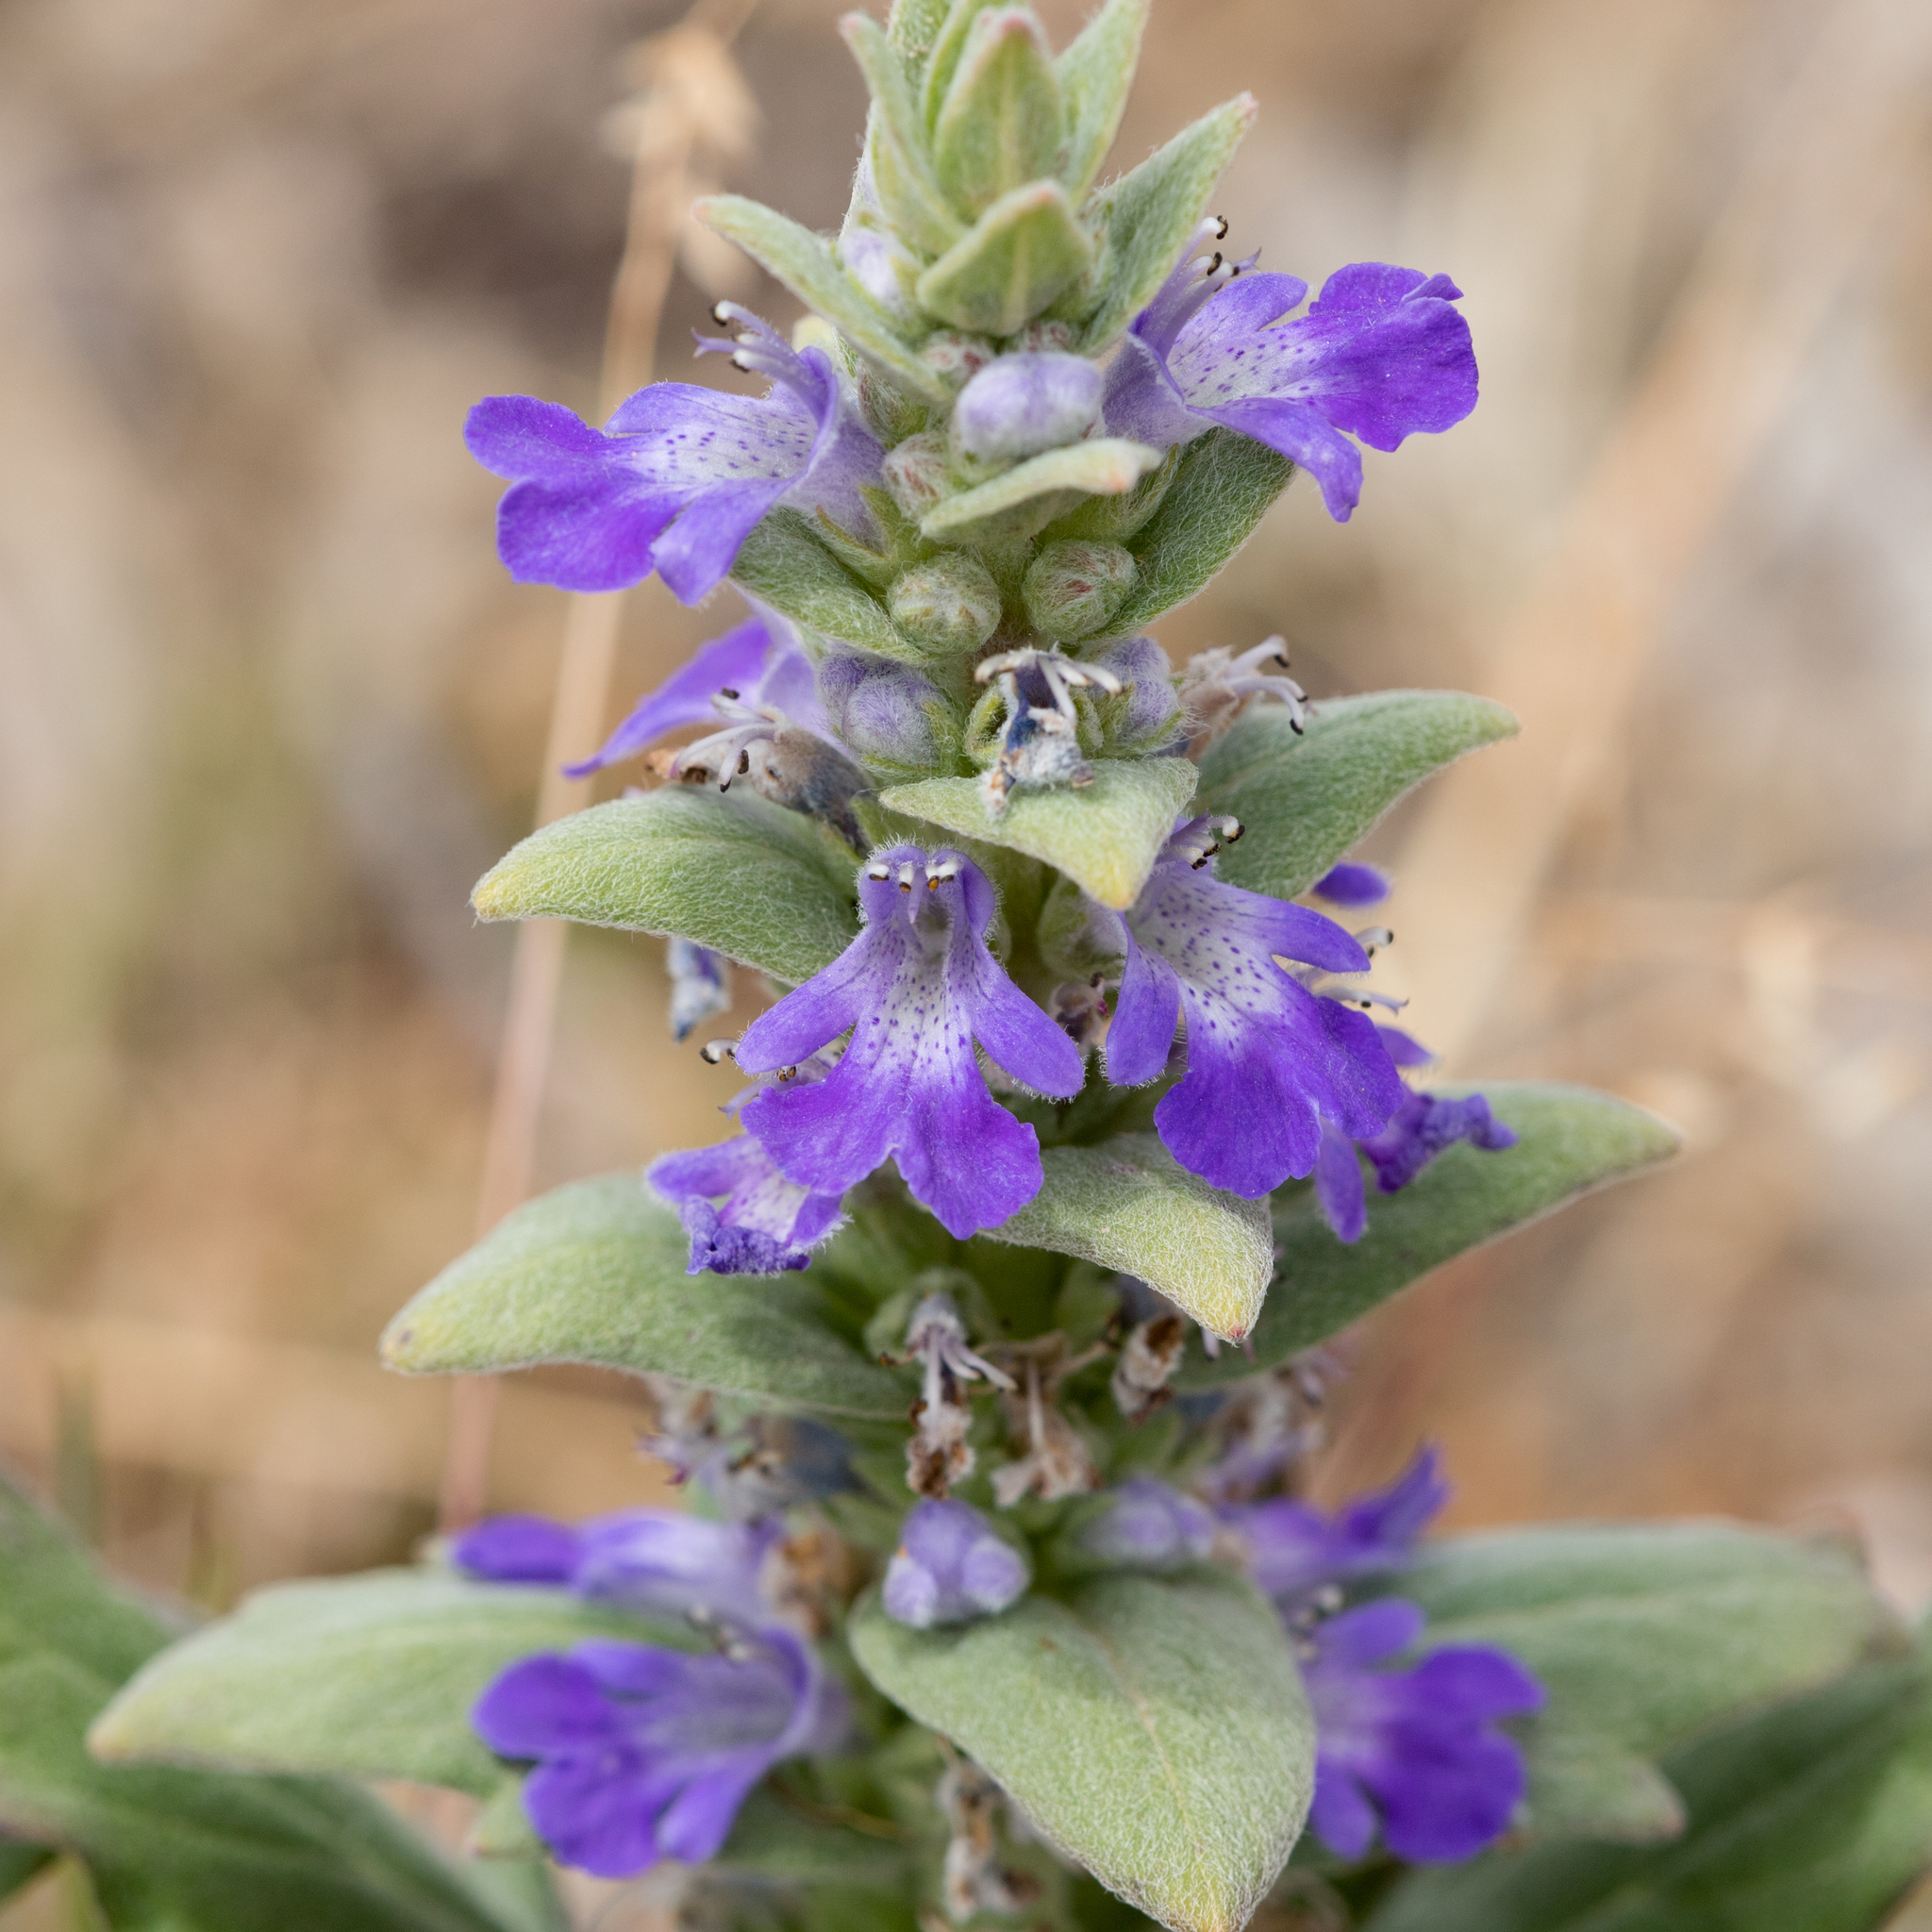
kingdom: Plantae
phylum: Tracheophyta
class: Magnoliopsida
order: Lamiales
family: Lamiaceae
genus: Ajuga
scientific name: Ajuga australis
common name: Australian bugle
